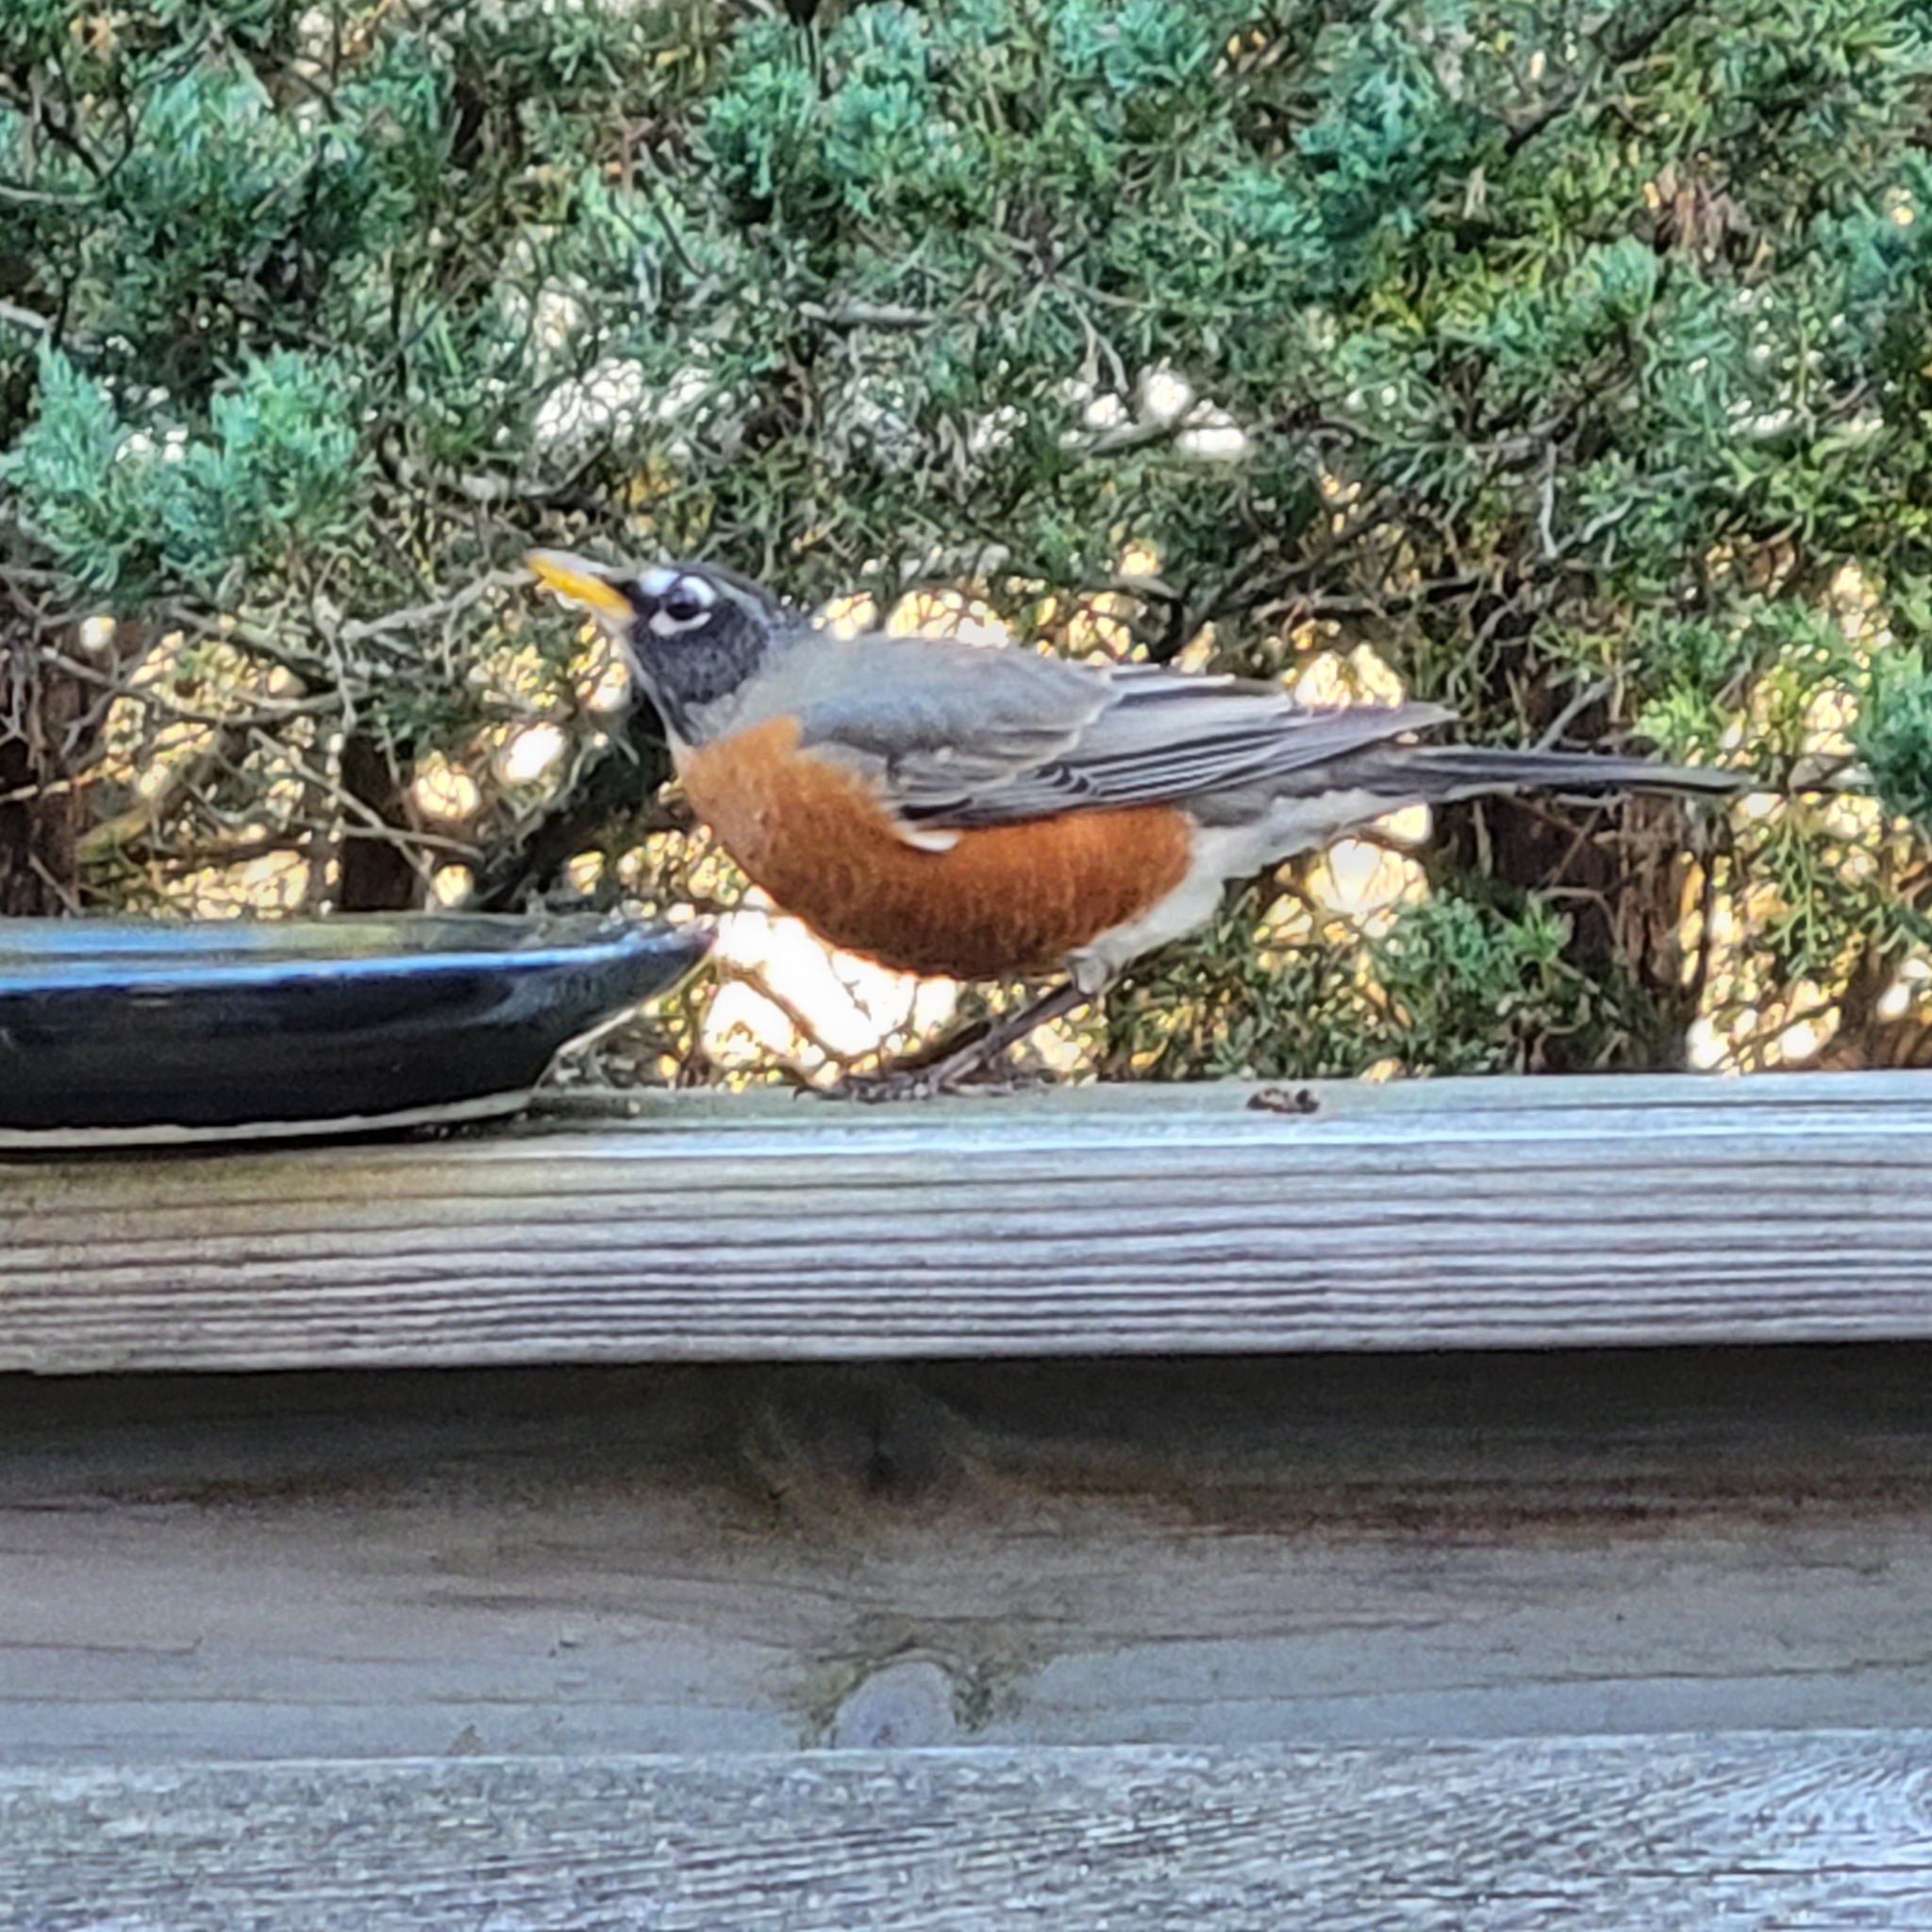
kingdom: Animalia
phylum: Chordata
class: Aves
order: Passeriformes
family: Turdidae
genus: Turdus
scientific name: Turdus migratorius
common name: American robin
